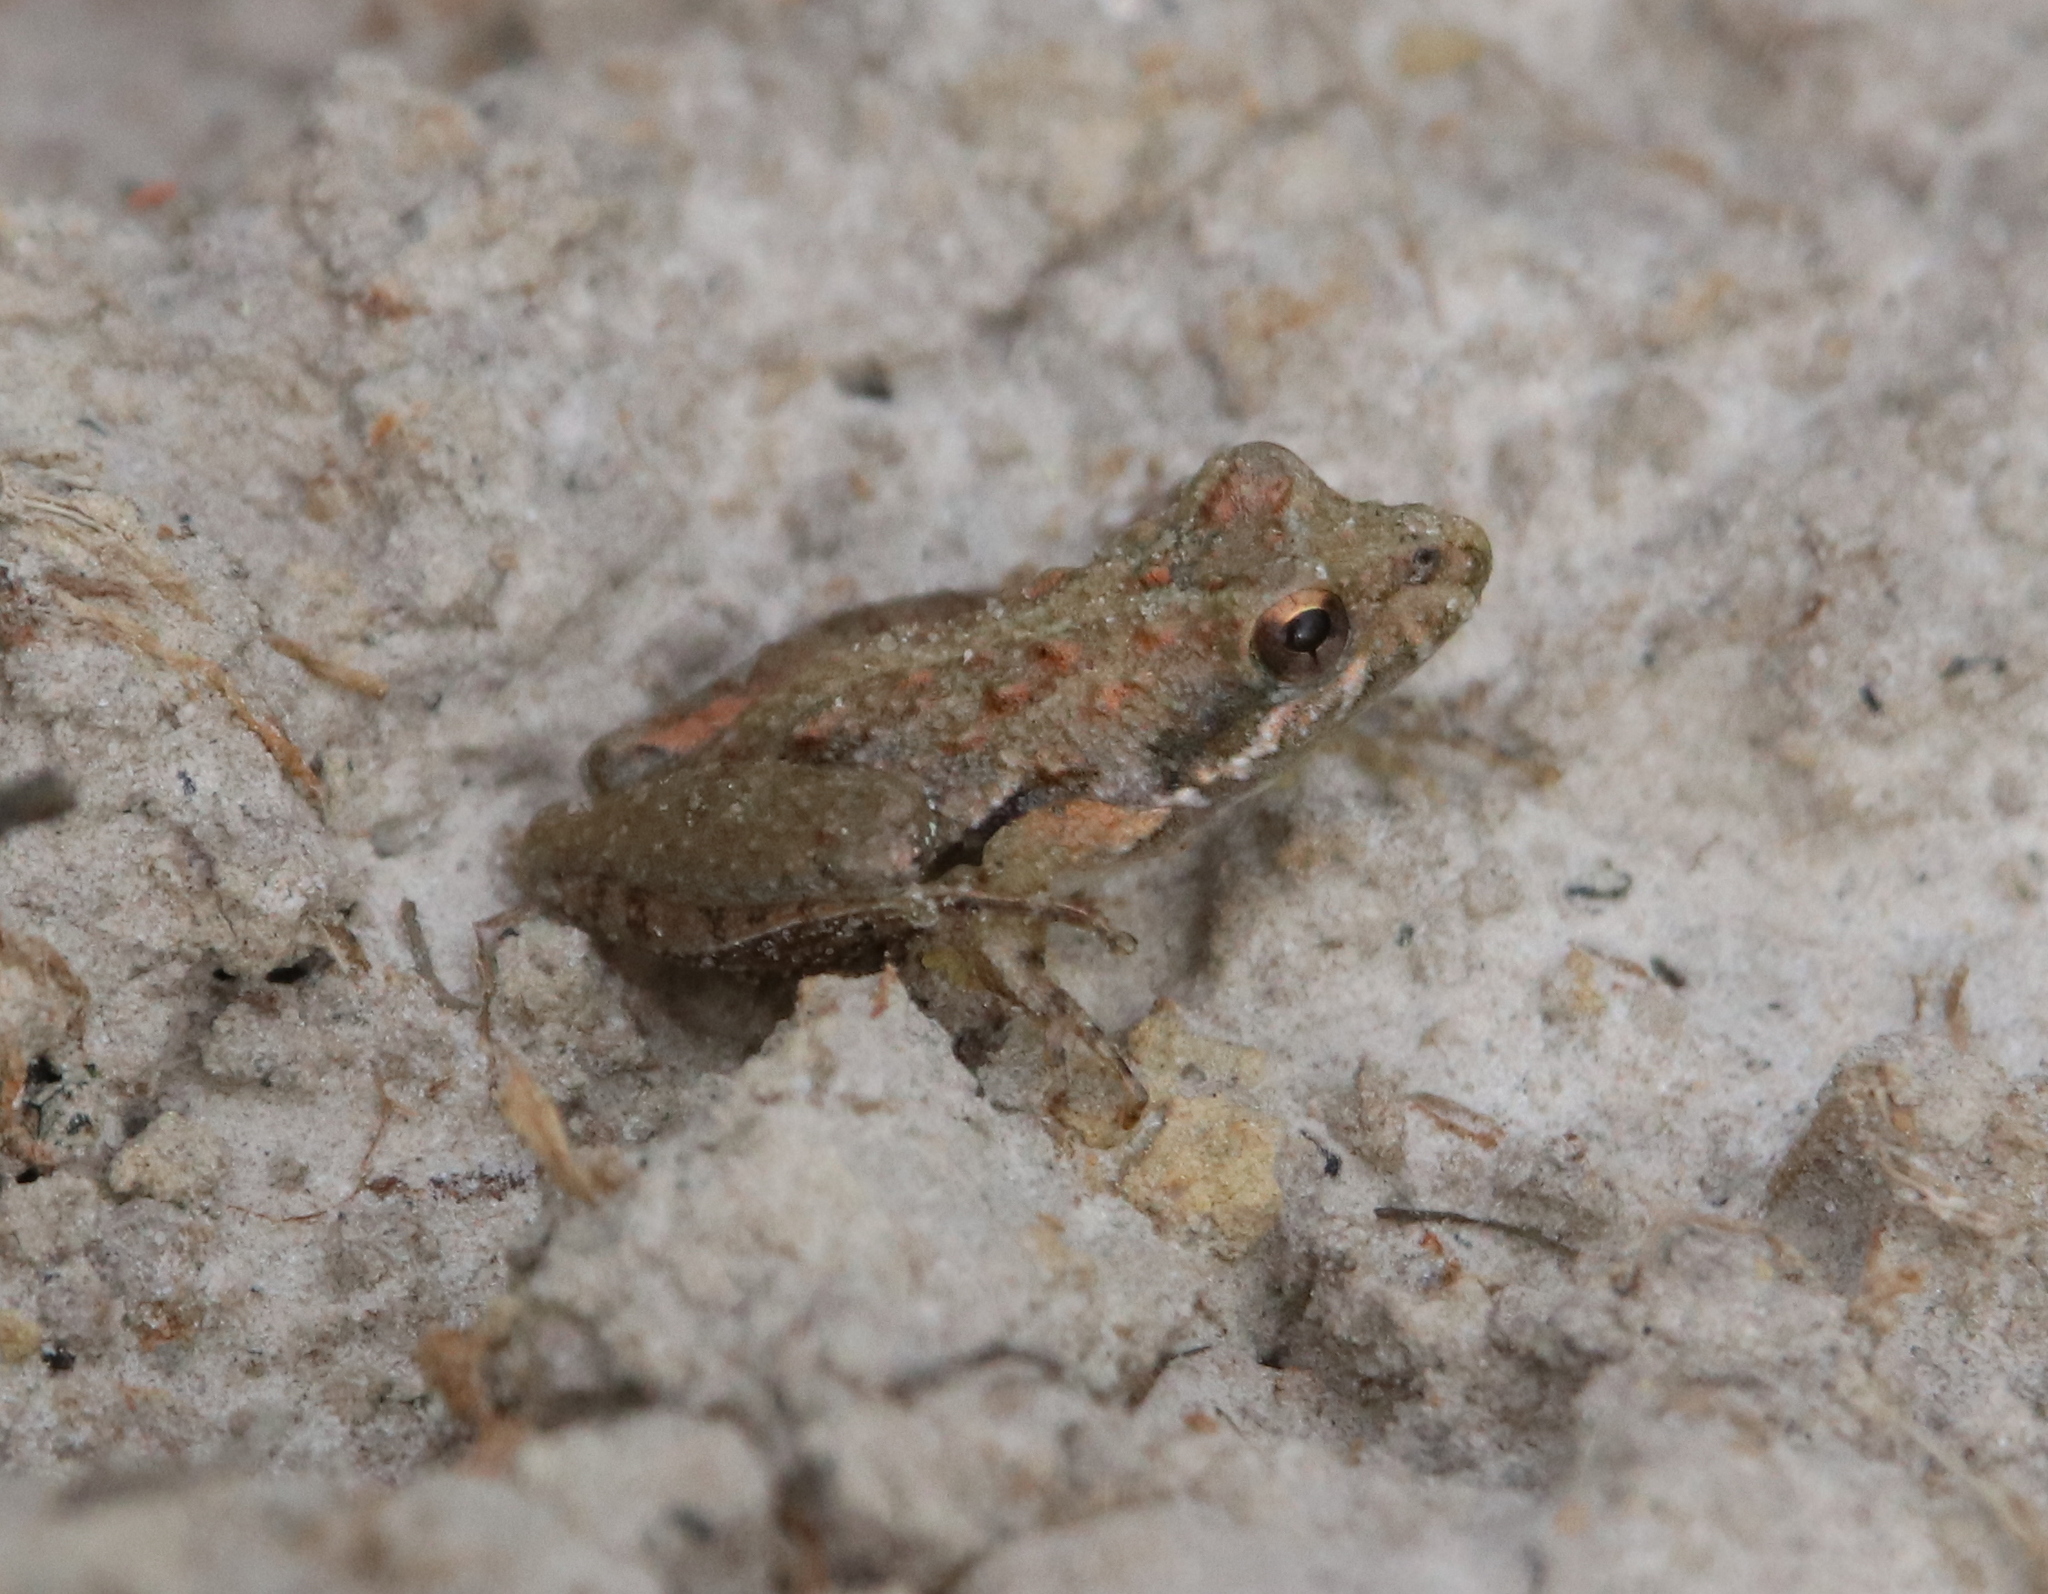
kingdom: Animalia
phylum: Chordata
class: Amphibia
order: Anura
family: Hylidae
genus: Acris
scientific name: Acris gryllus
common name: Southern cricket frog
